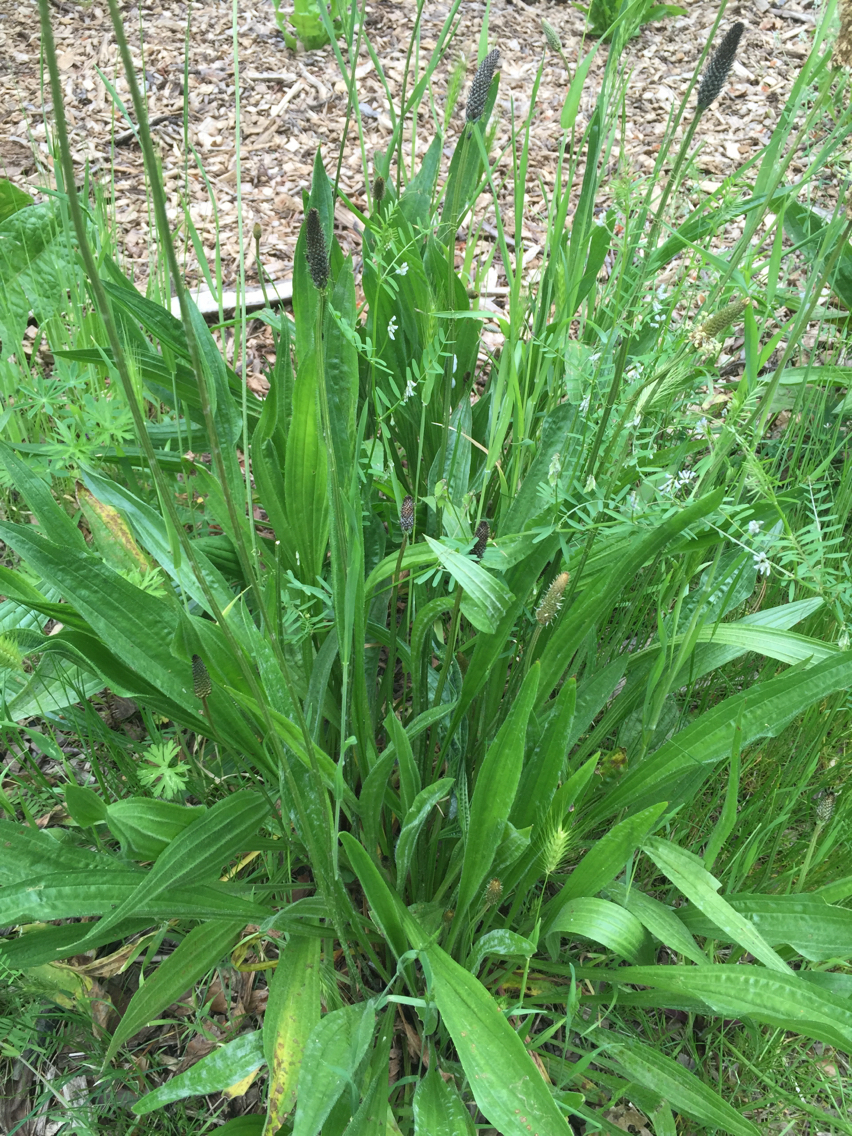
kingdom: Plantae
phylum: Tracheophyta
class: Magnoliopsida
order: Lamiales
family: Plantaginaceae
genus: Plantago
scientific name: Plantago lanceolata
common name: Ribwort plantain
